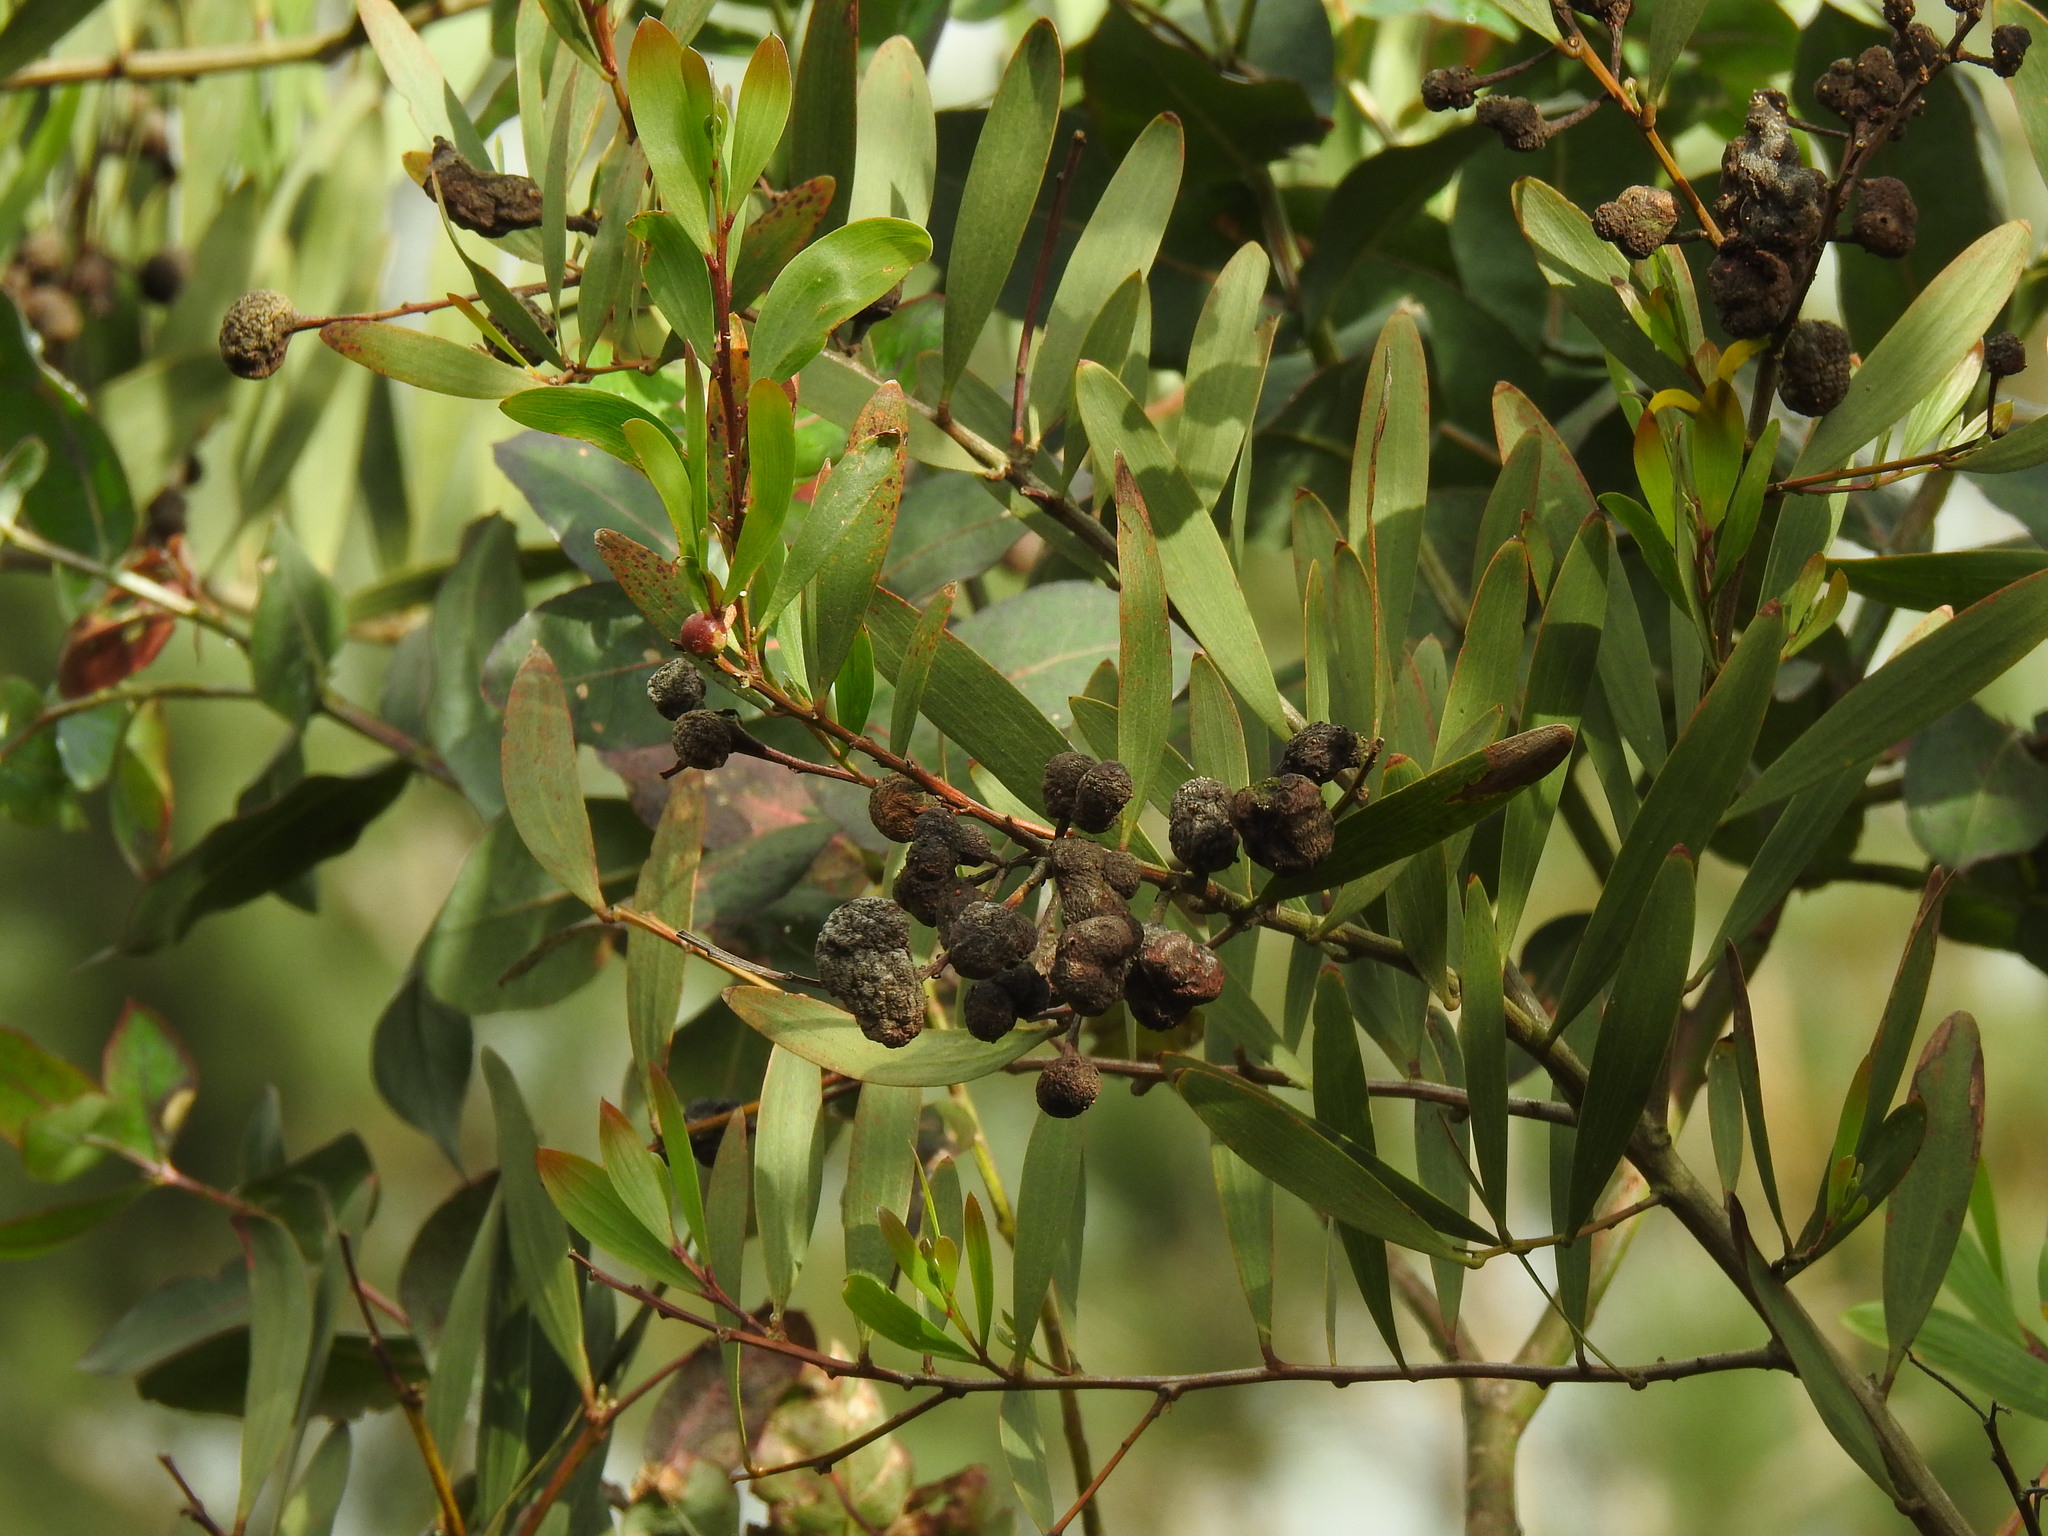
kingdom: Animalia
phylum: Arthropoda
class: Insecta
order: Hymenoptera
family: Pteromalidae
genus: Trichilogaster
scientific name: Trichilogaster acaciaelongifoliae
